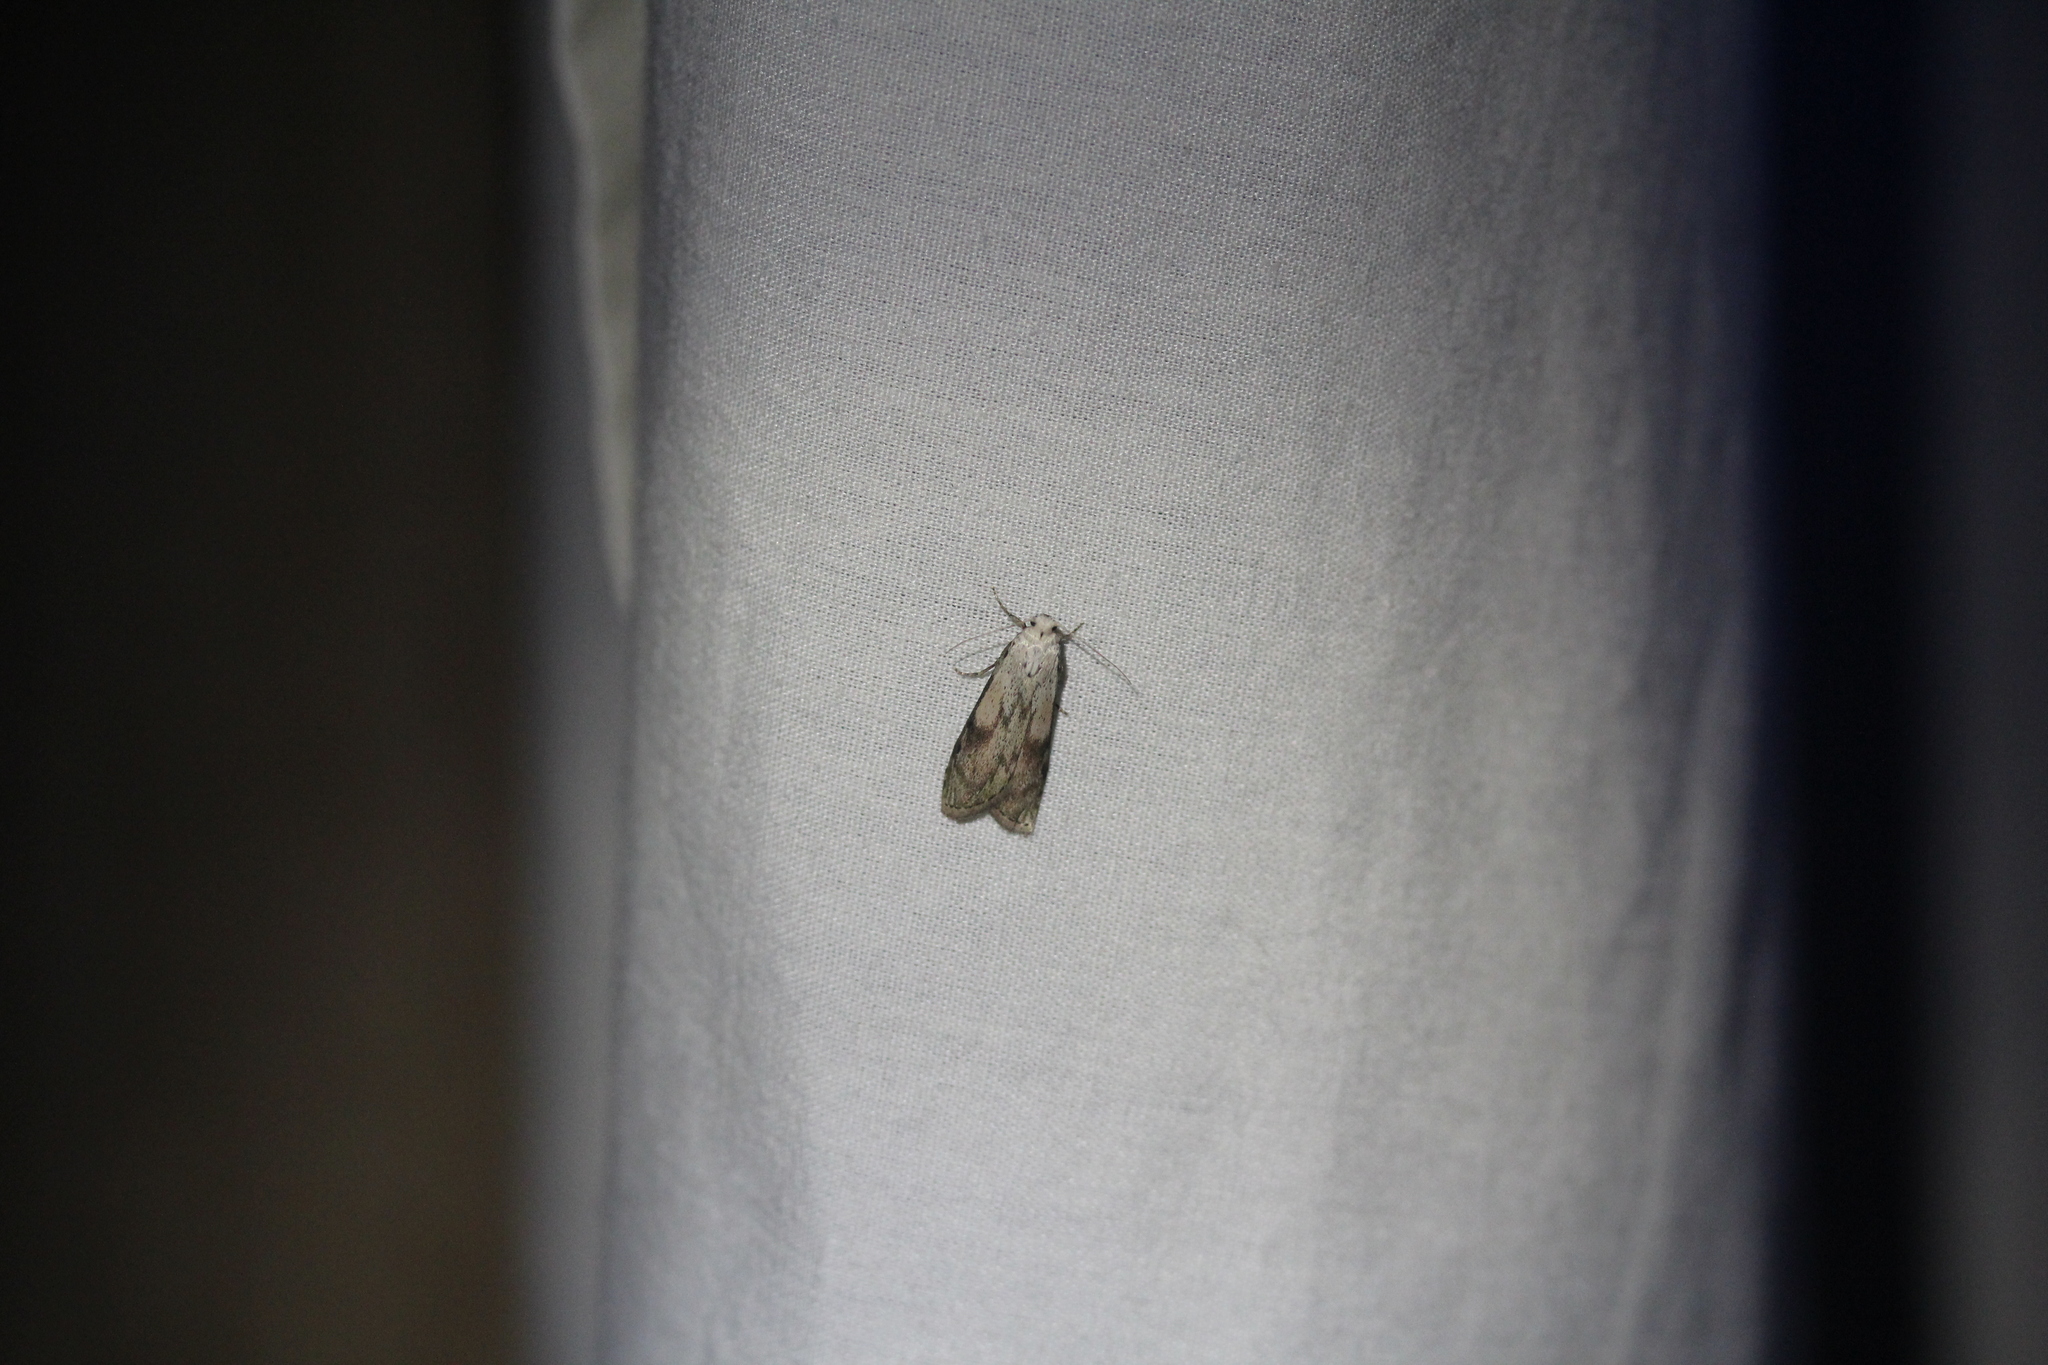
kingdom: Animalia
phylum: Arthropoda
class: Insecta
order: Lepidoptera
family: Pyralidae
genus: Aphomia
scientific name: Aphomia sociella
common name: Bee moth
